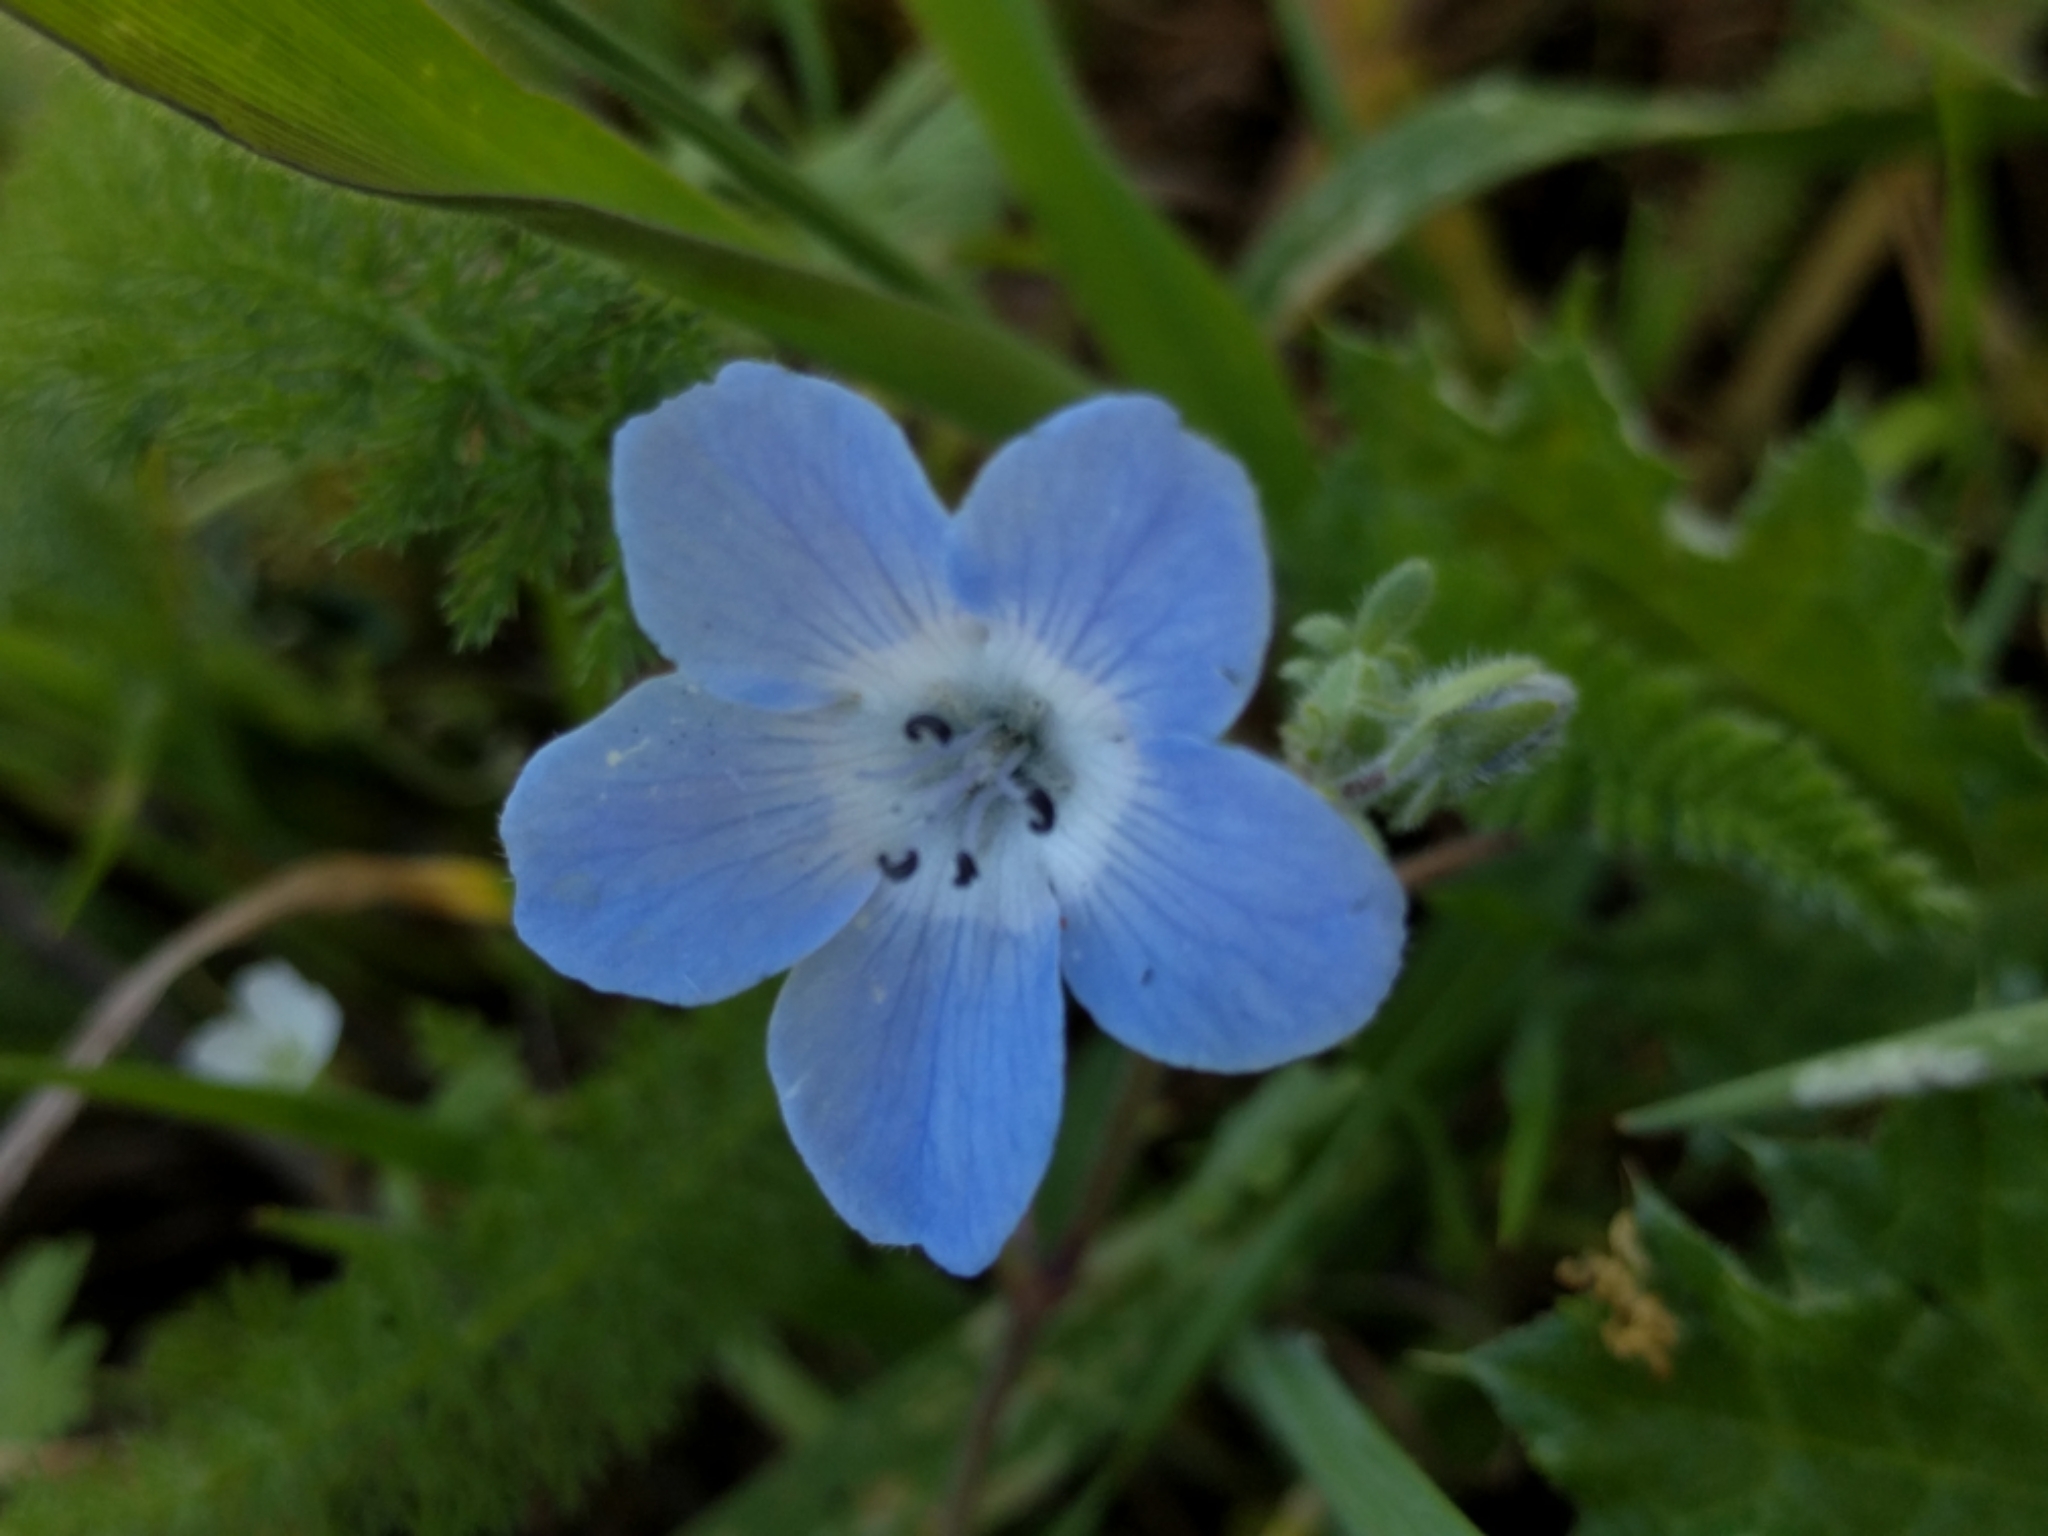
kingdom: Plantae
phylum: Tracheophyta
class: Magnoliopsida
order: Boraginales
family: Hydrophyllaceae
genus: Nemophila
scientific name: Nemophila menziesii
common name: Baby's-blue-eyes
